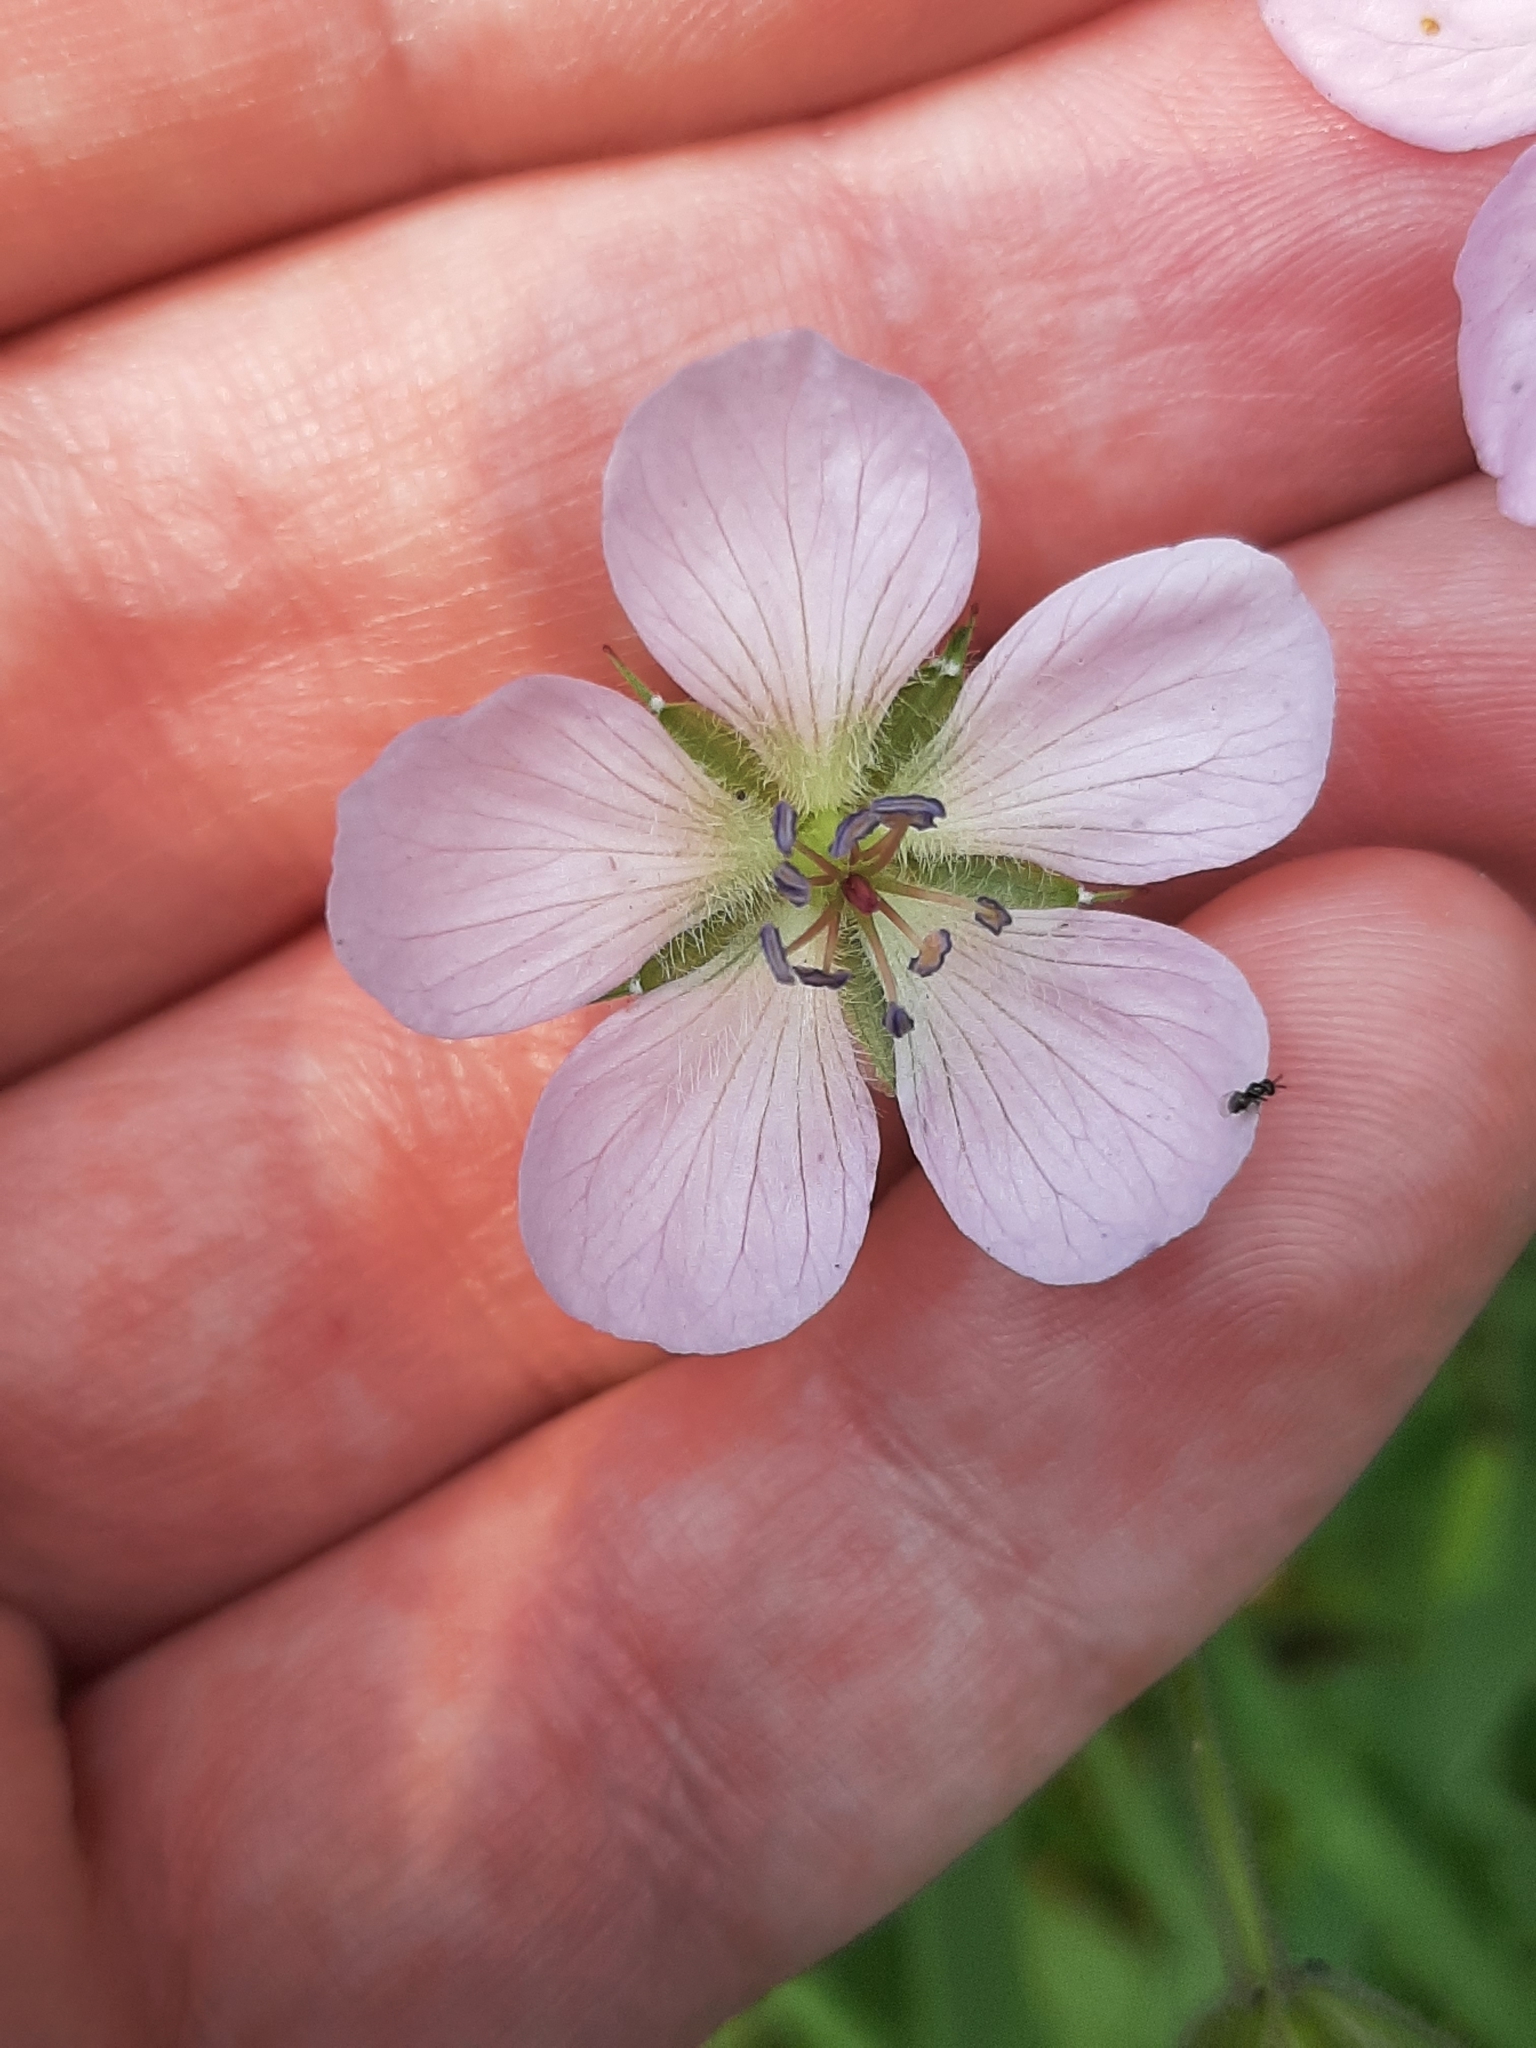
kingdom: Plantae
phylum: Tracheophyta
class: Magnoliopsida
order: Geraniales
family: Geraniaceae
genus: Geranium
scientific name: Geranium richardsonii
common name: Richardson's crane's-bill
